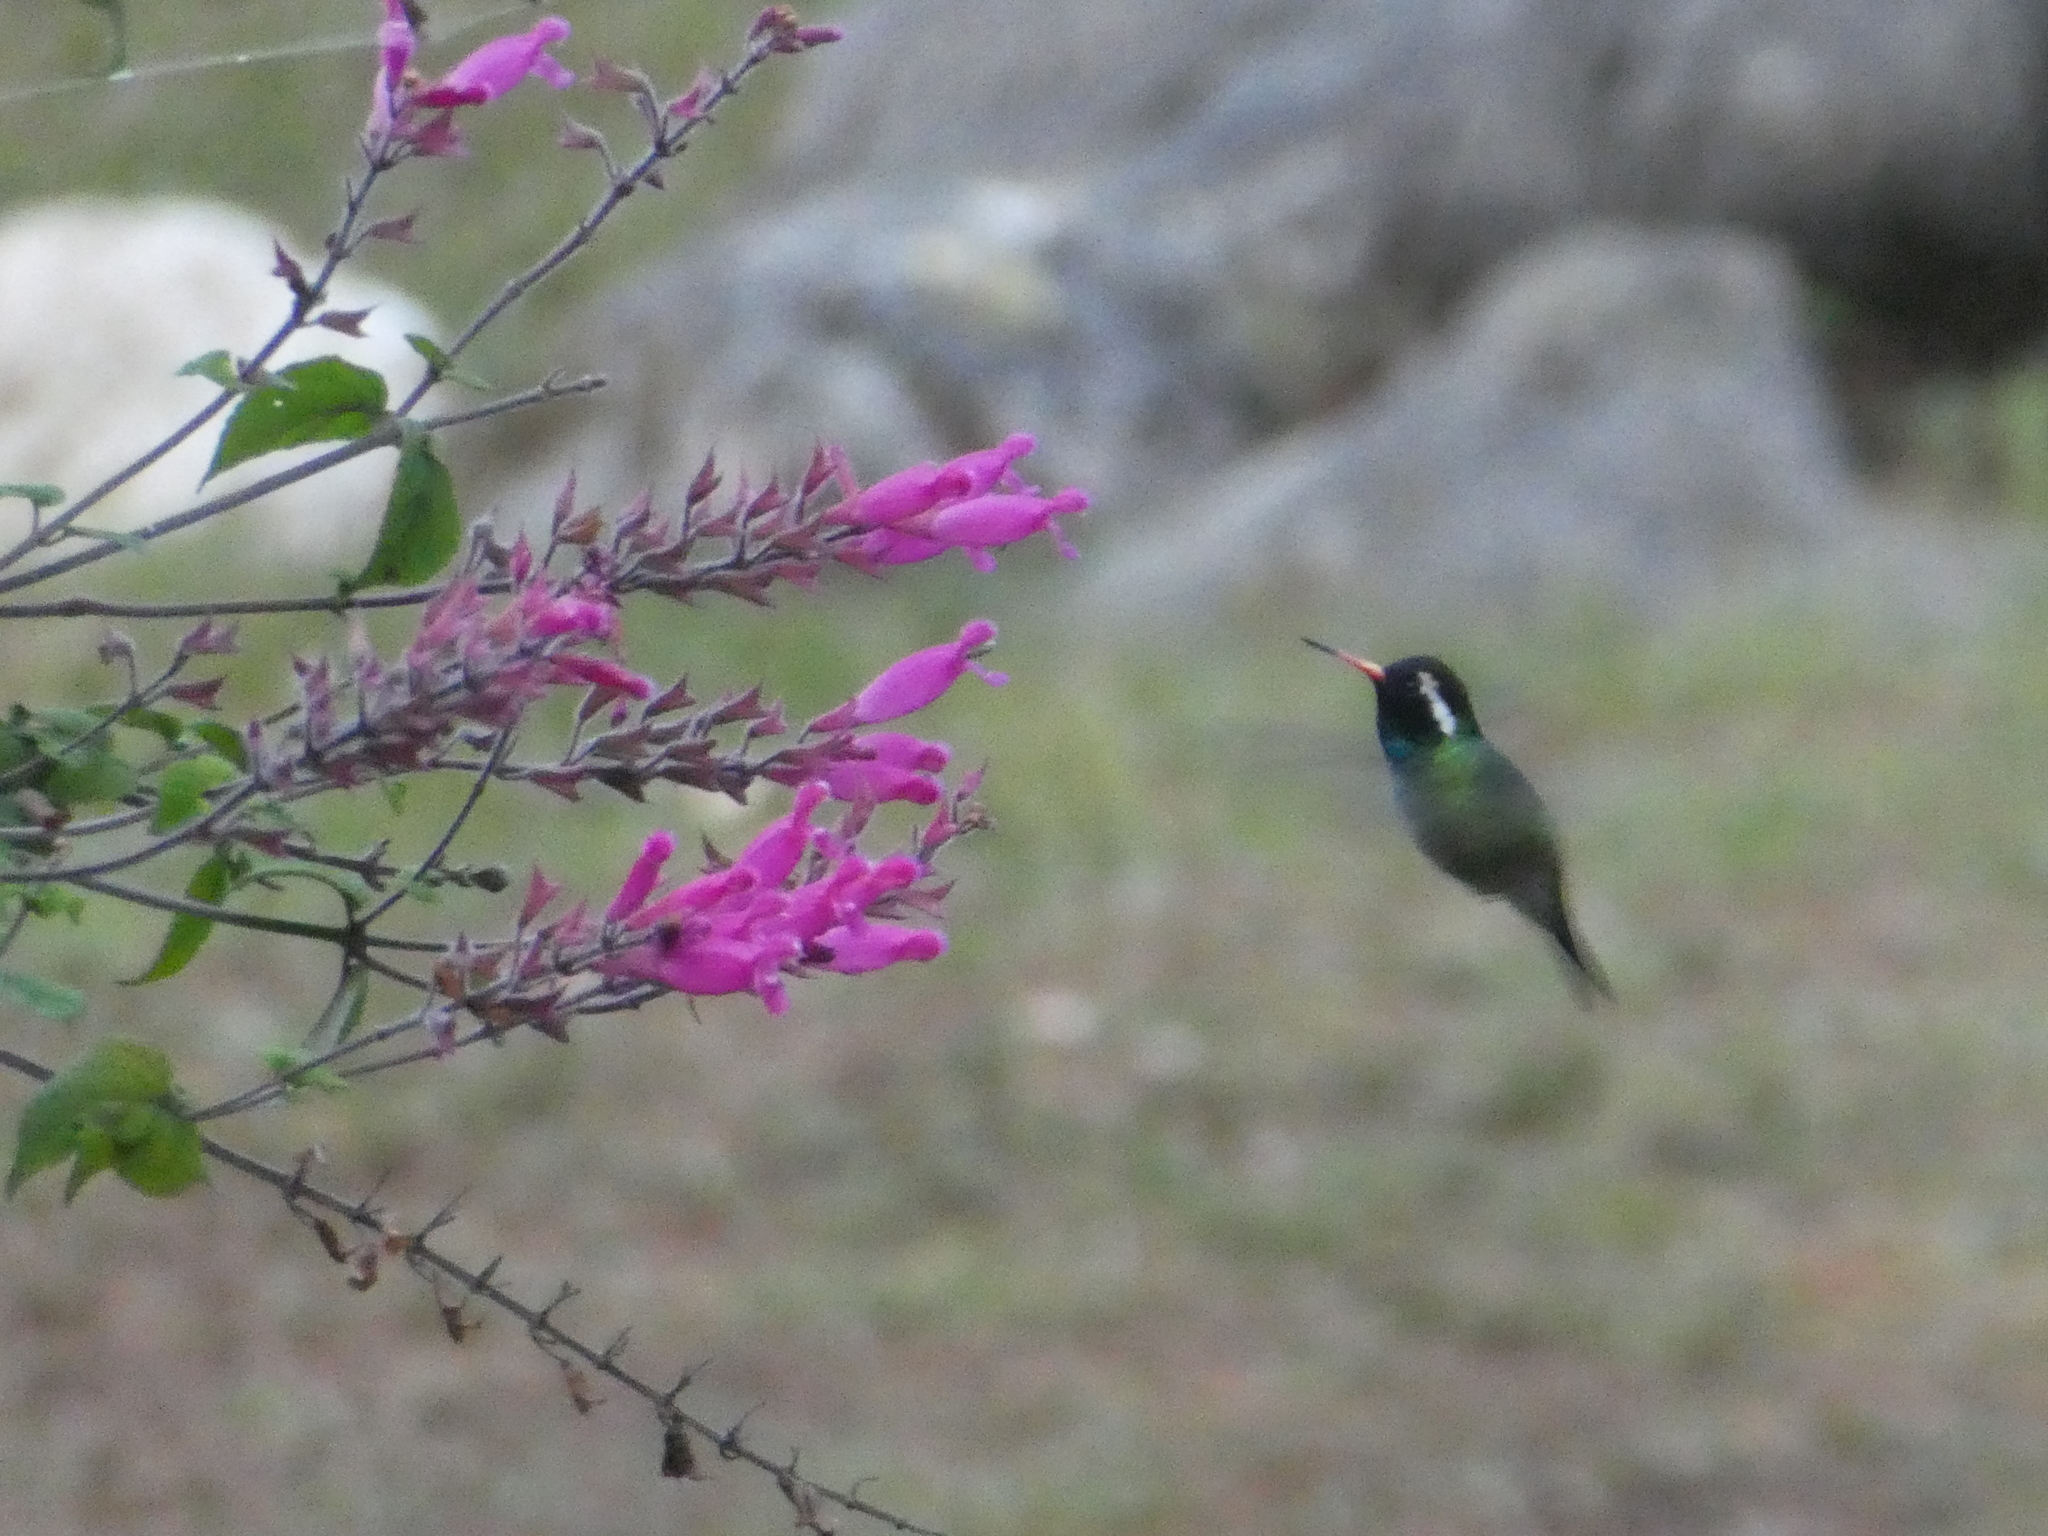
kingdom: Animalia
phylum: Chordata
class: Aves
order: Apodiformes
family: Trochilidae
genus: Basilinna
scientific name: Basilinna leucotis
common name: White-eared hummingbird
